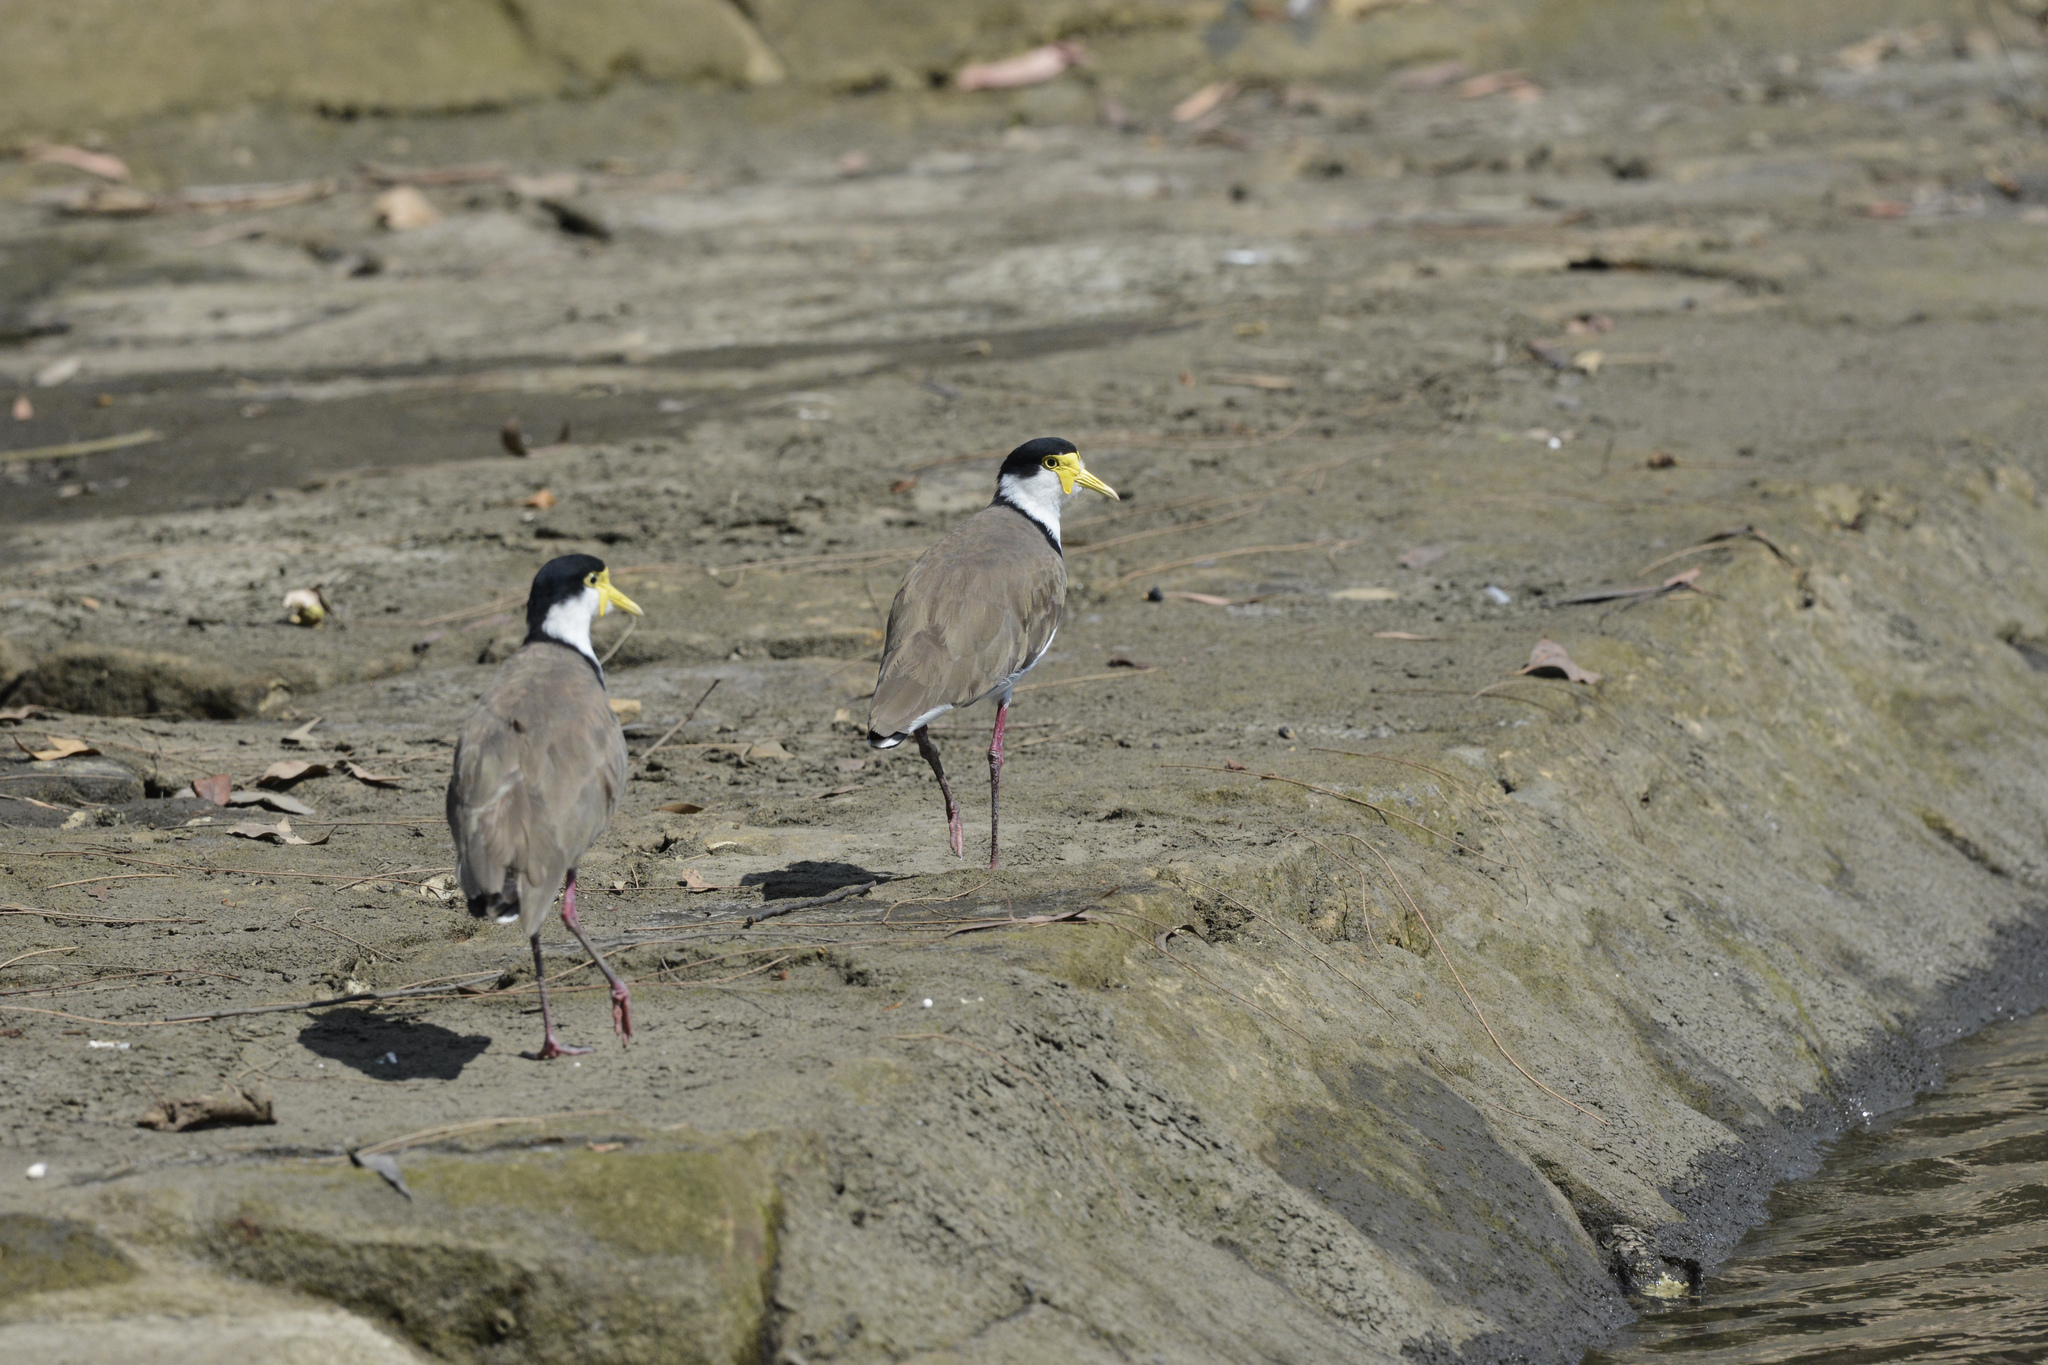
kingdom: Animalia
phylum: Chordata
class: Aves
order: Charadriiformes
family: Charadriidae
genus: Vanellus
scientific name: Vanellus miles
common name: Masked lapwing
